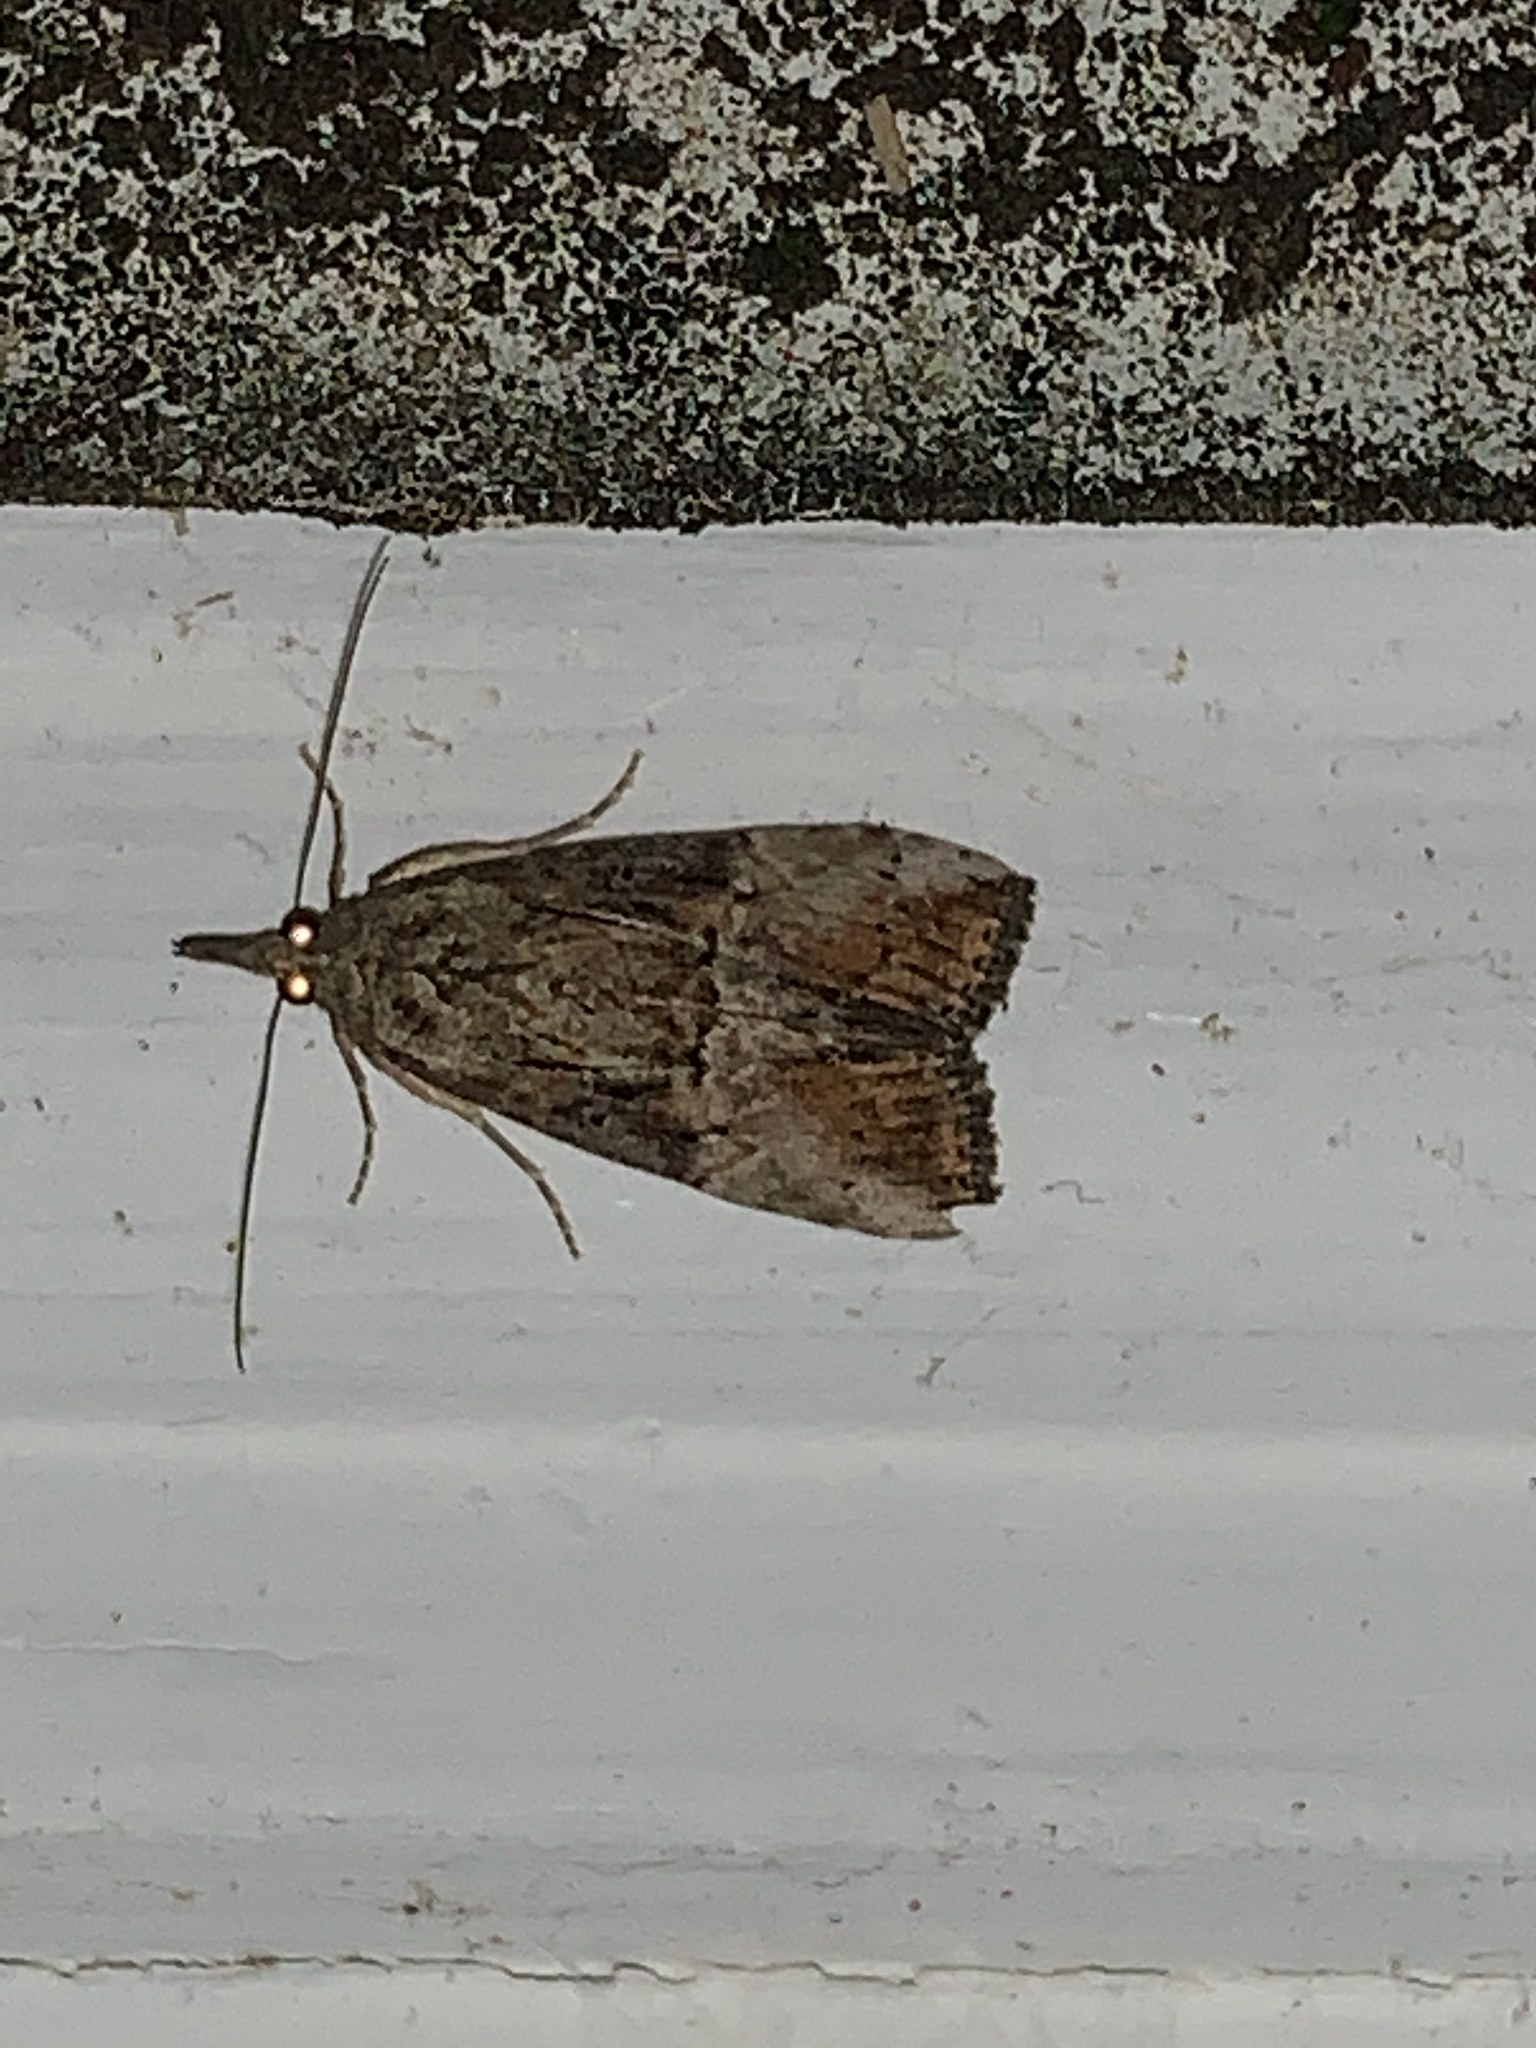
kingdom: Animalia
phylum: Arthropoda
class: Insecta
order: Lepidoptera
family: Erebidae
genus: Hypena
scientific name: Hypena scabra
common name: Green cloverworm
